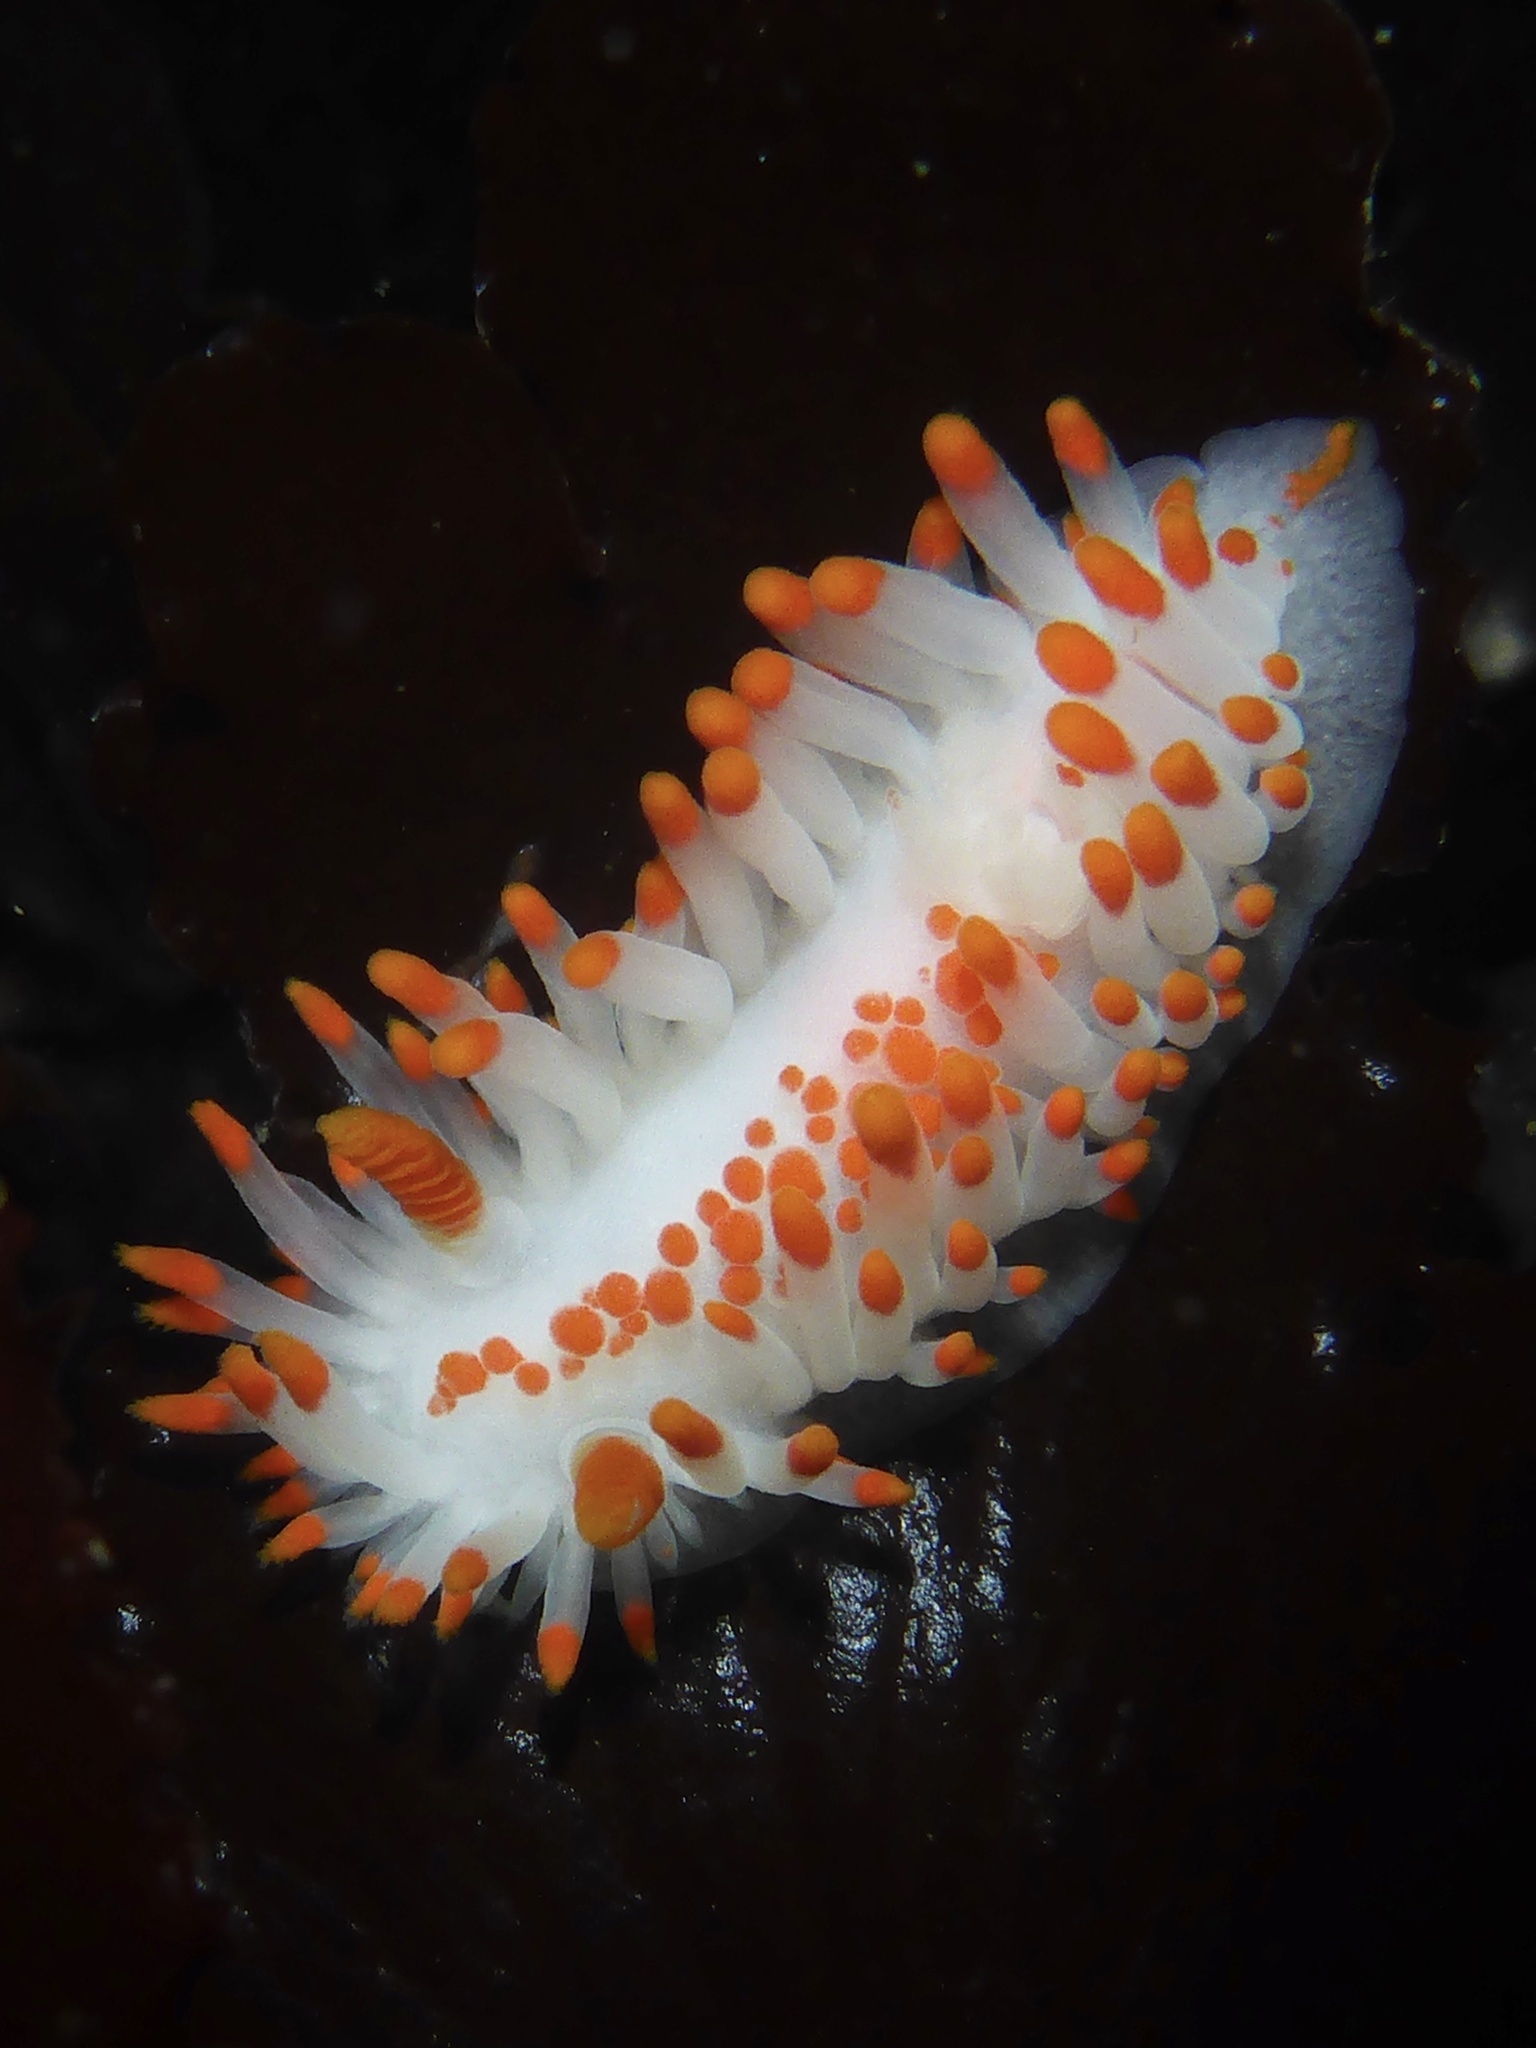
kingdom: Animalia
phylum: Mollusca
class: Gastropoda
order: Nudibranchia
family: Polyceridae
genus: Limacia
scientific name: Limacia mcdonaldi
